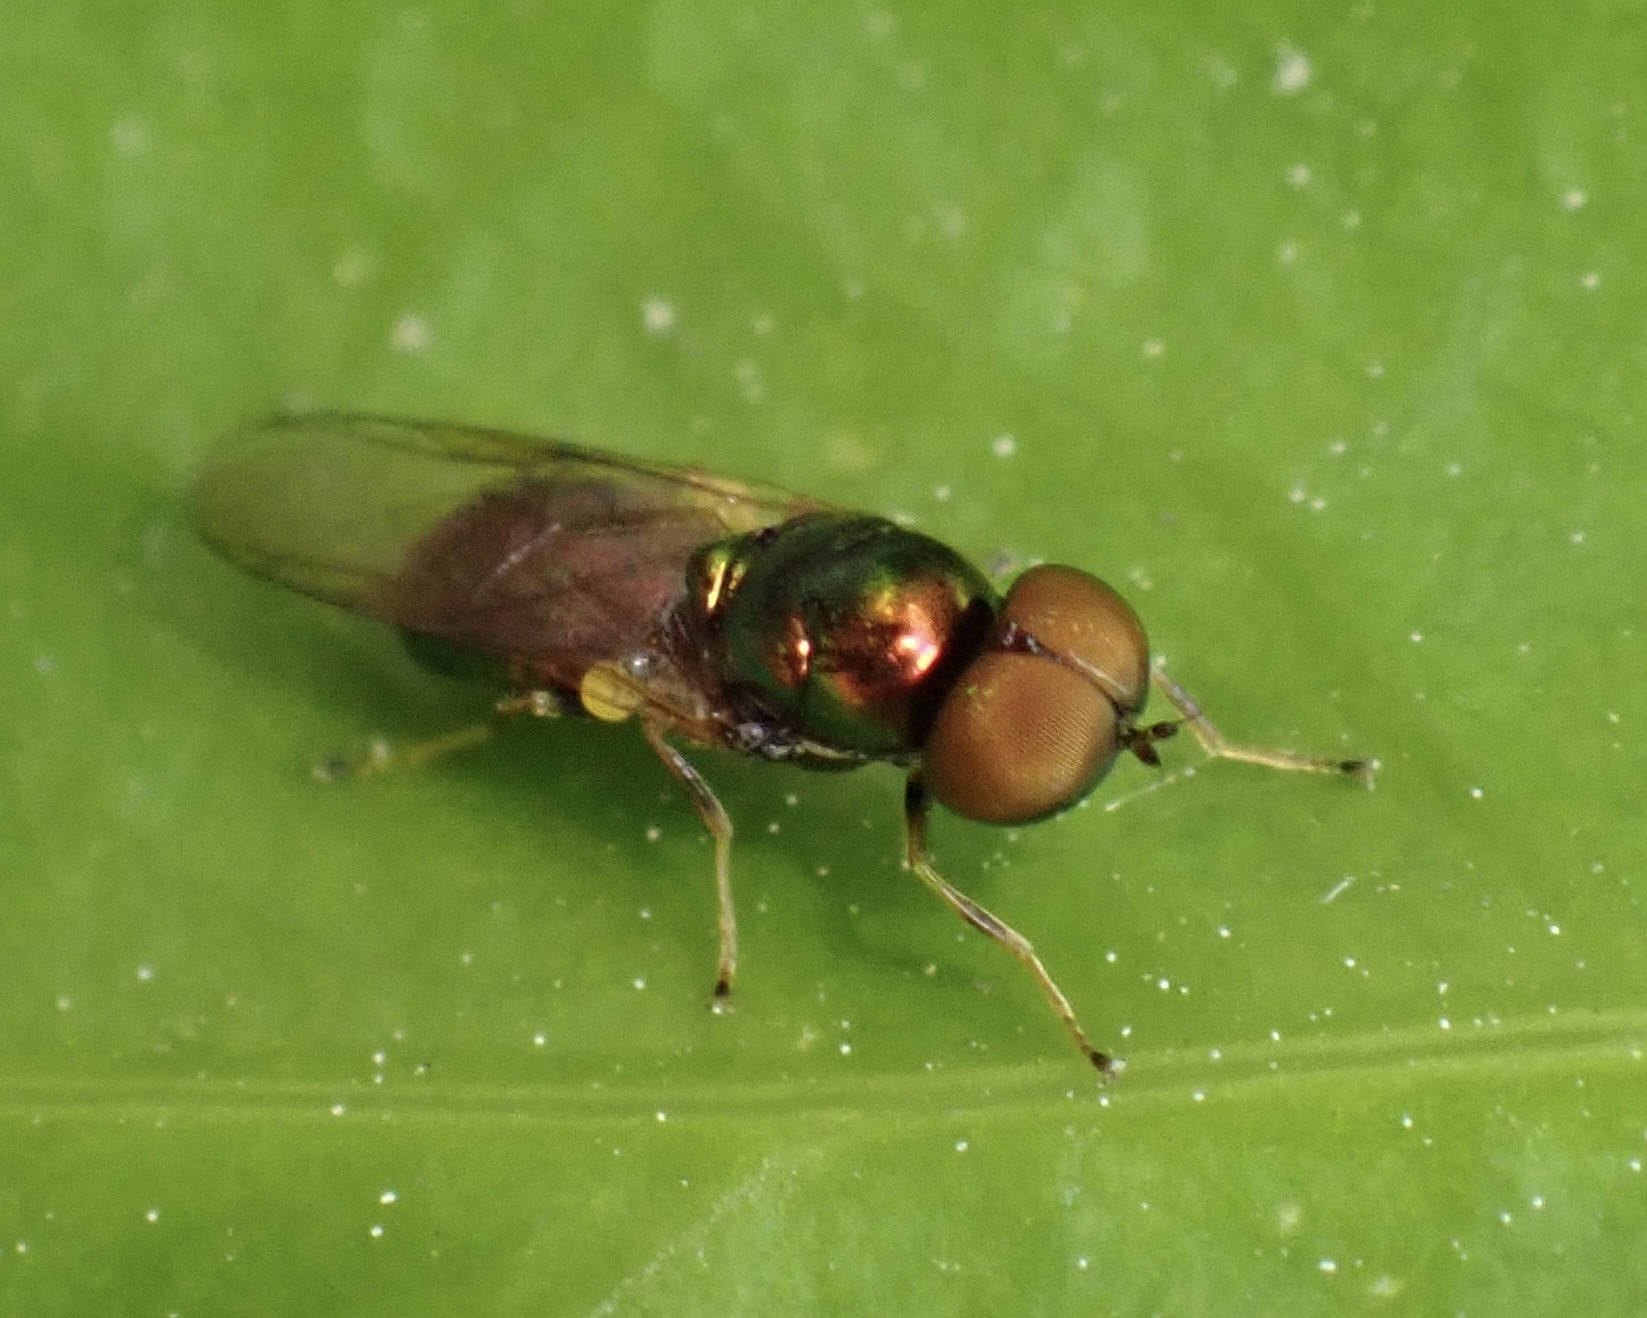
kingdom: Animalia
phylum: Arthropoda
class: Insecta
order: Diptera
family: Stratiomyidae
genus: Microchrysa
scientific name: Microchrysa polita
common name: Black-horned gem
